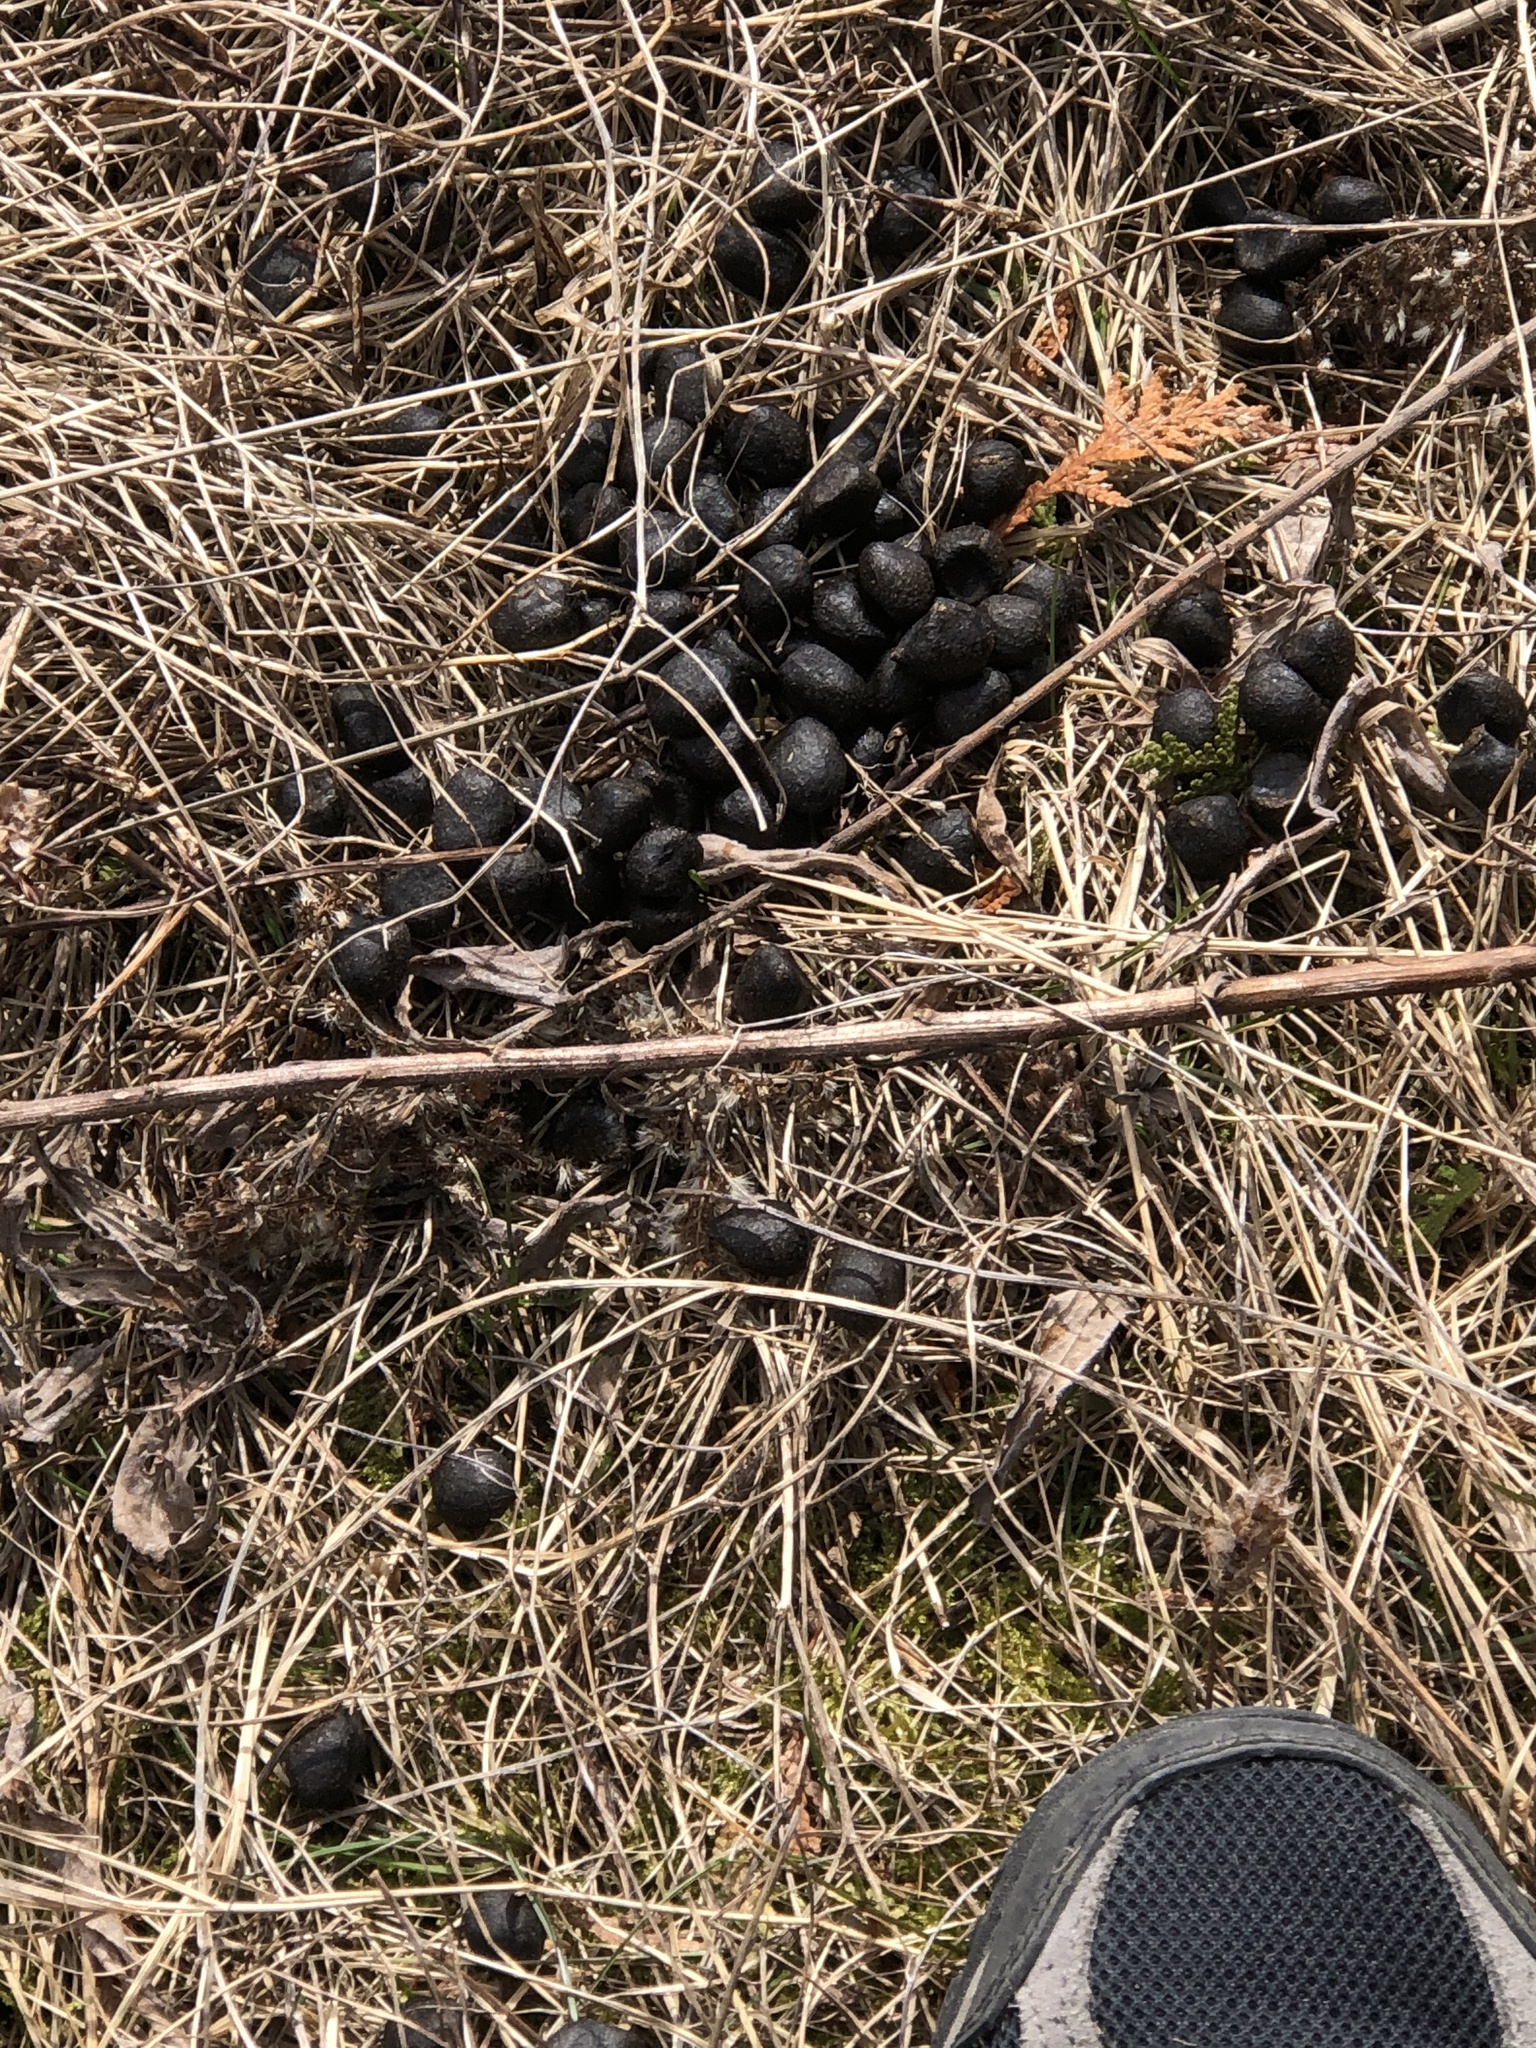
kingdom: Animalia
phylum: Chordata
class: Mammalia
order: Artiodactyla
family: Cervidae
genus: Odocoileus
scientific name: Odocoileus virginianus
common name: White-tailed deer
